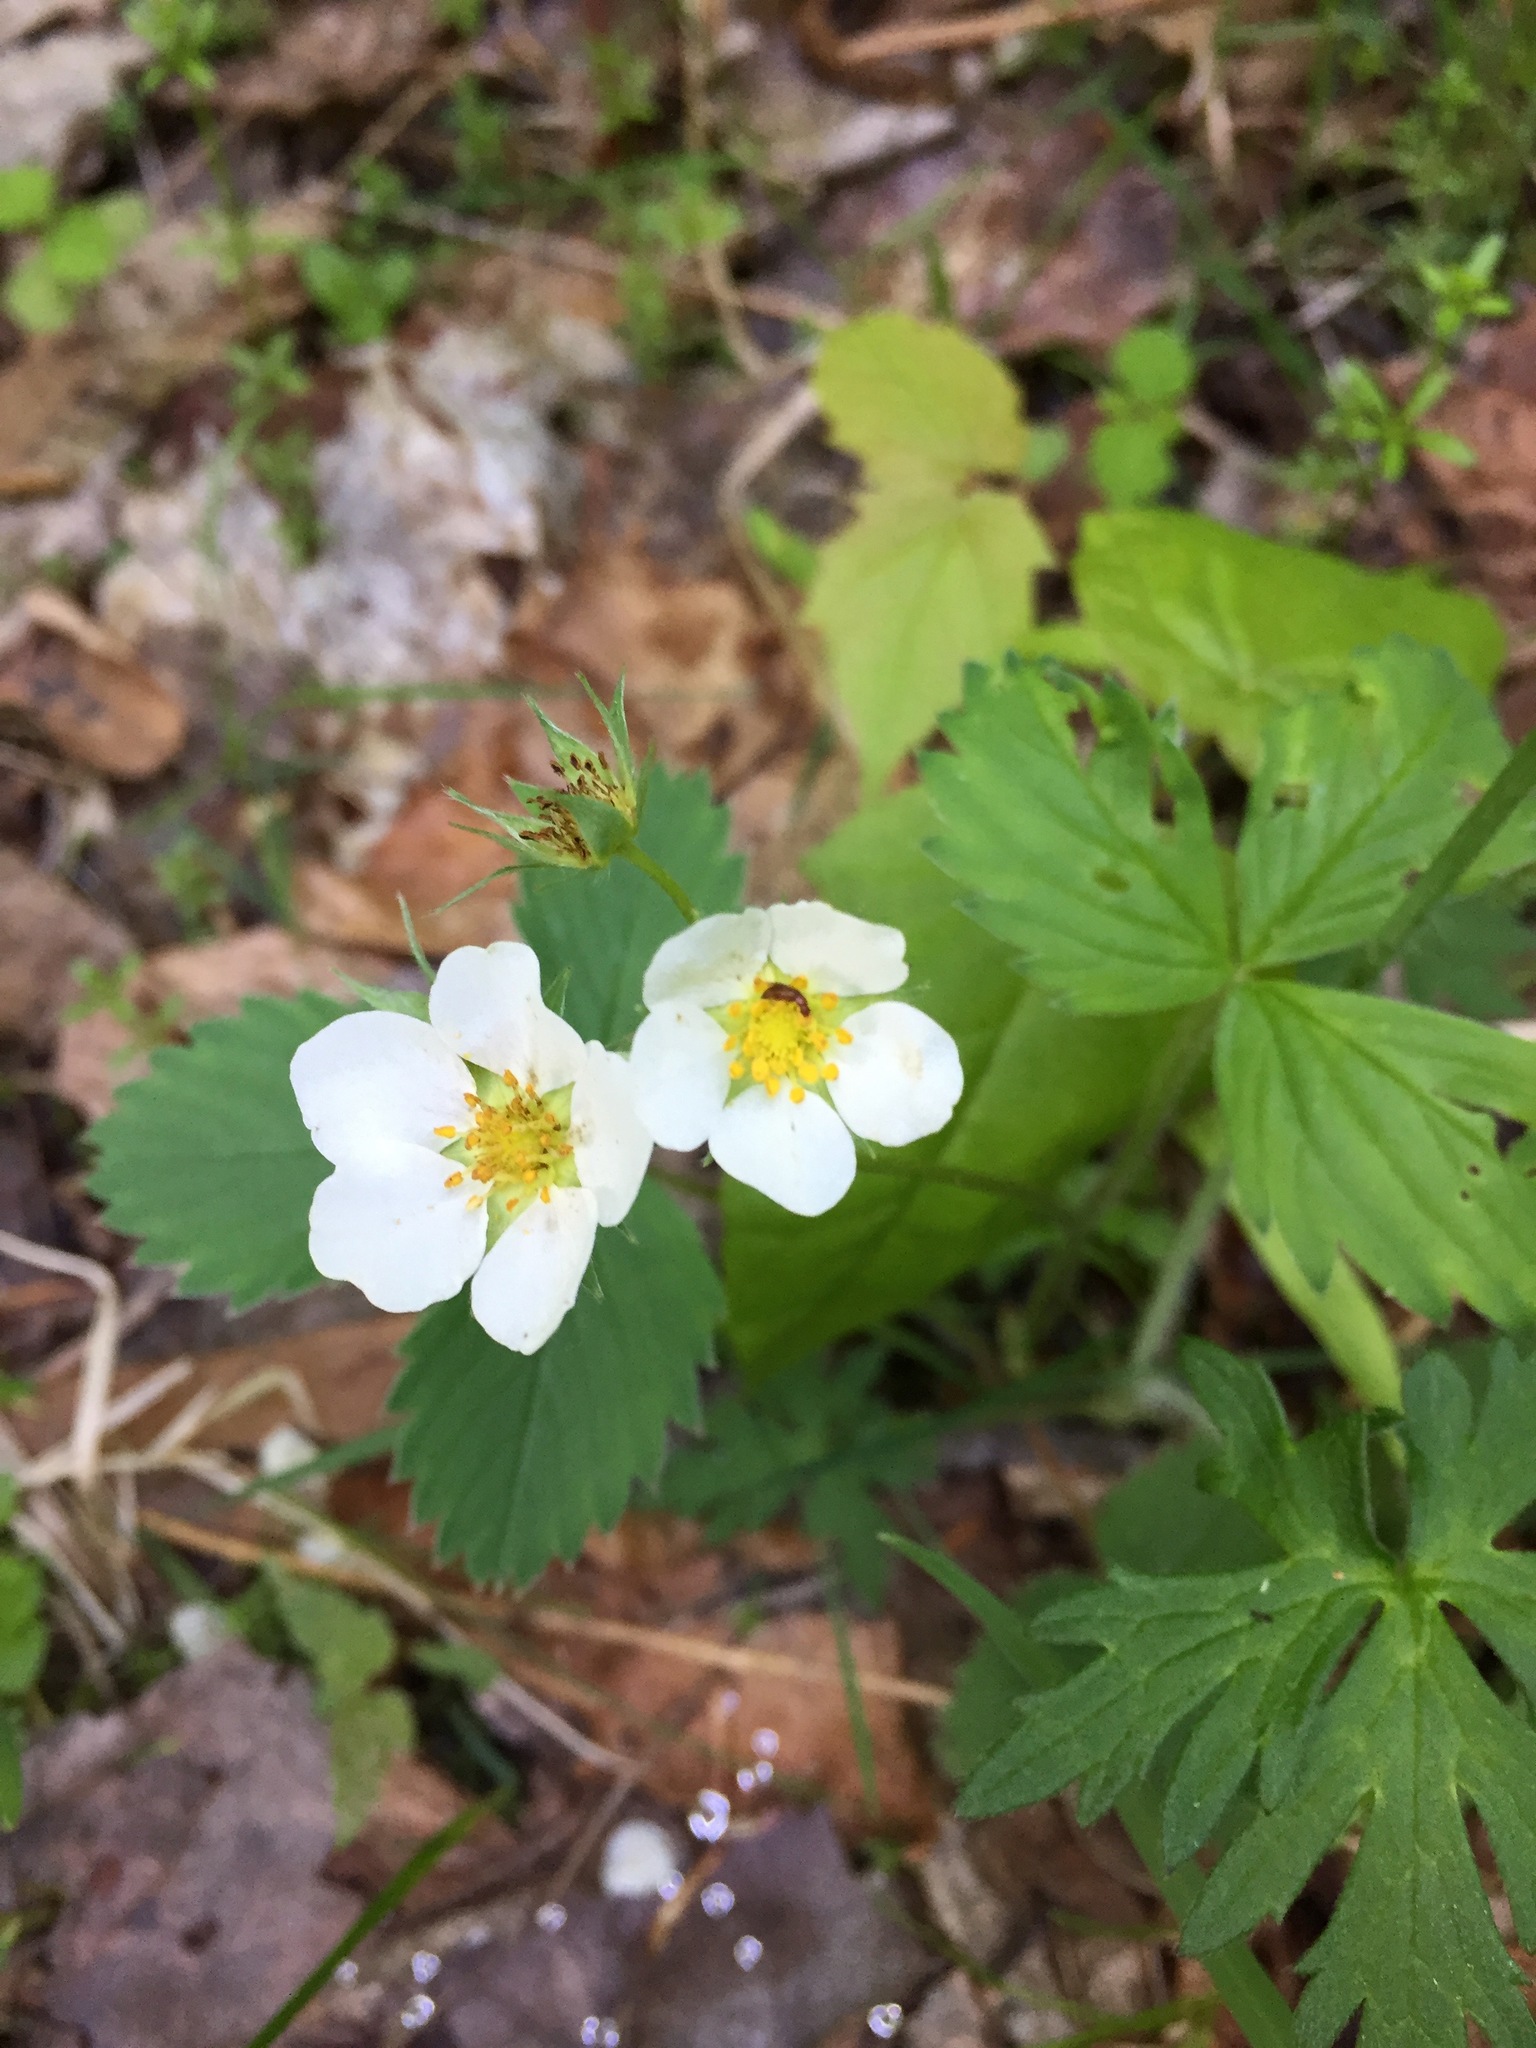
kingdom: Plantae
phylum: Tracheophyta
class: Magnoliopsida
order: Rosales
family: Rosaceae
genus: Fragaria
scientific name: Fragaria virginiana
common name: Thickleaved wild strawberry
